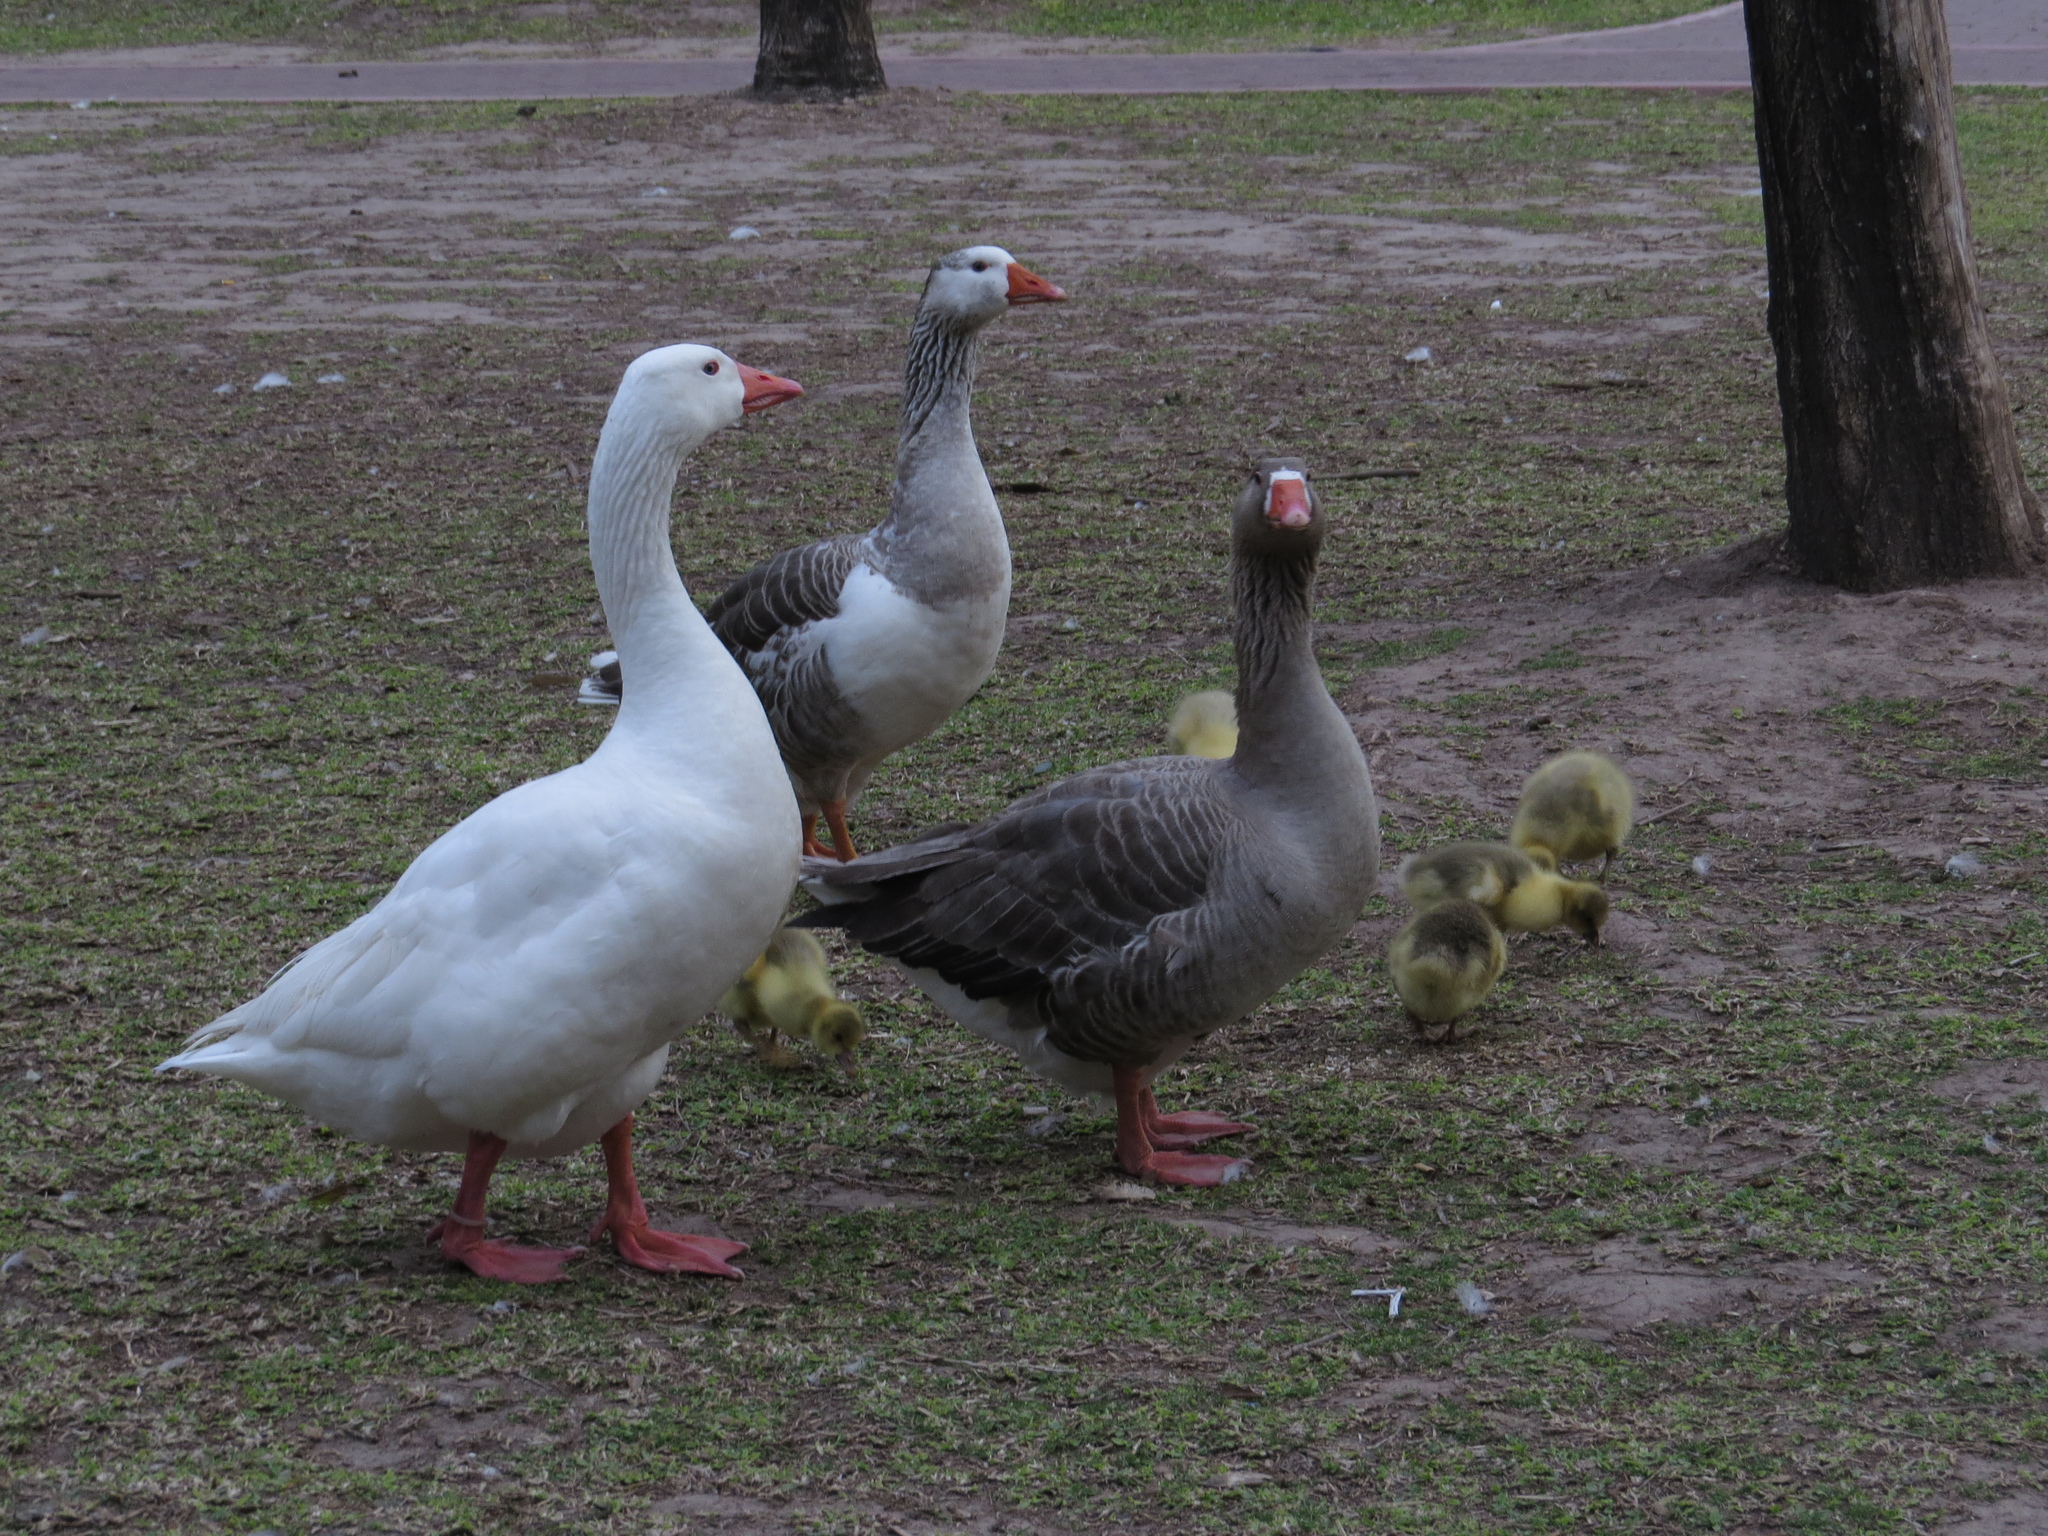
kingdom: Animalia
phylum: Chordata
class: Aves
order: Anseriformes
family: Anatidae
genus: Anser
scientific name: Anser anser
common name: Greylag goose
